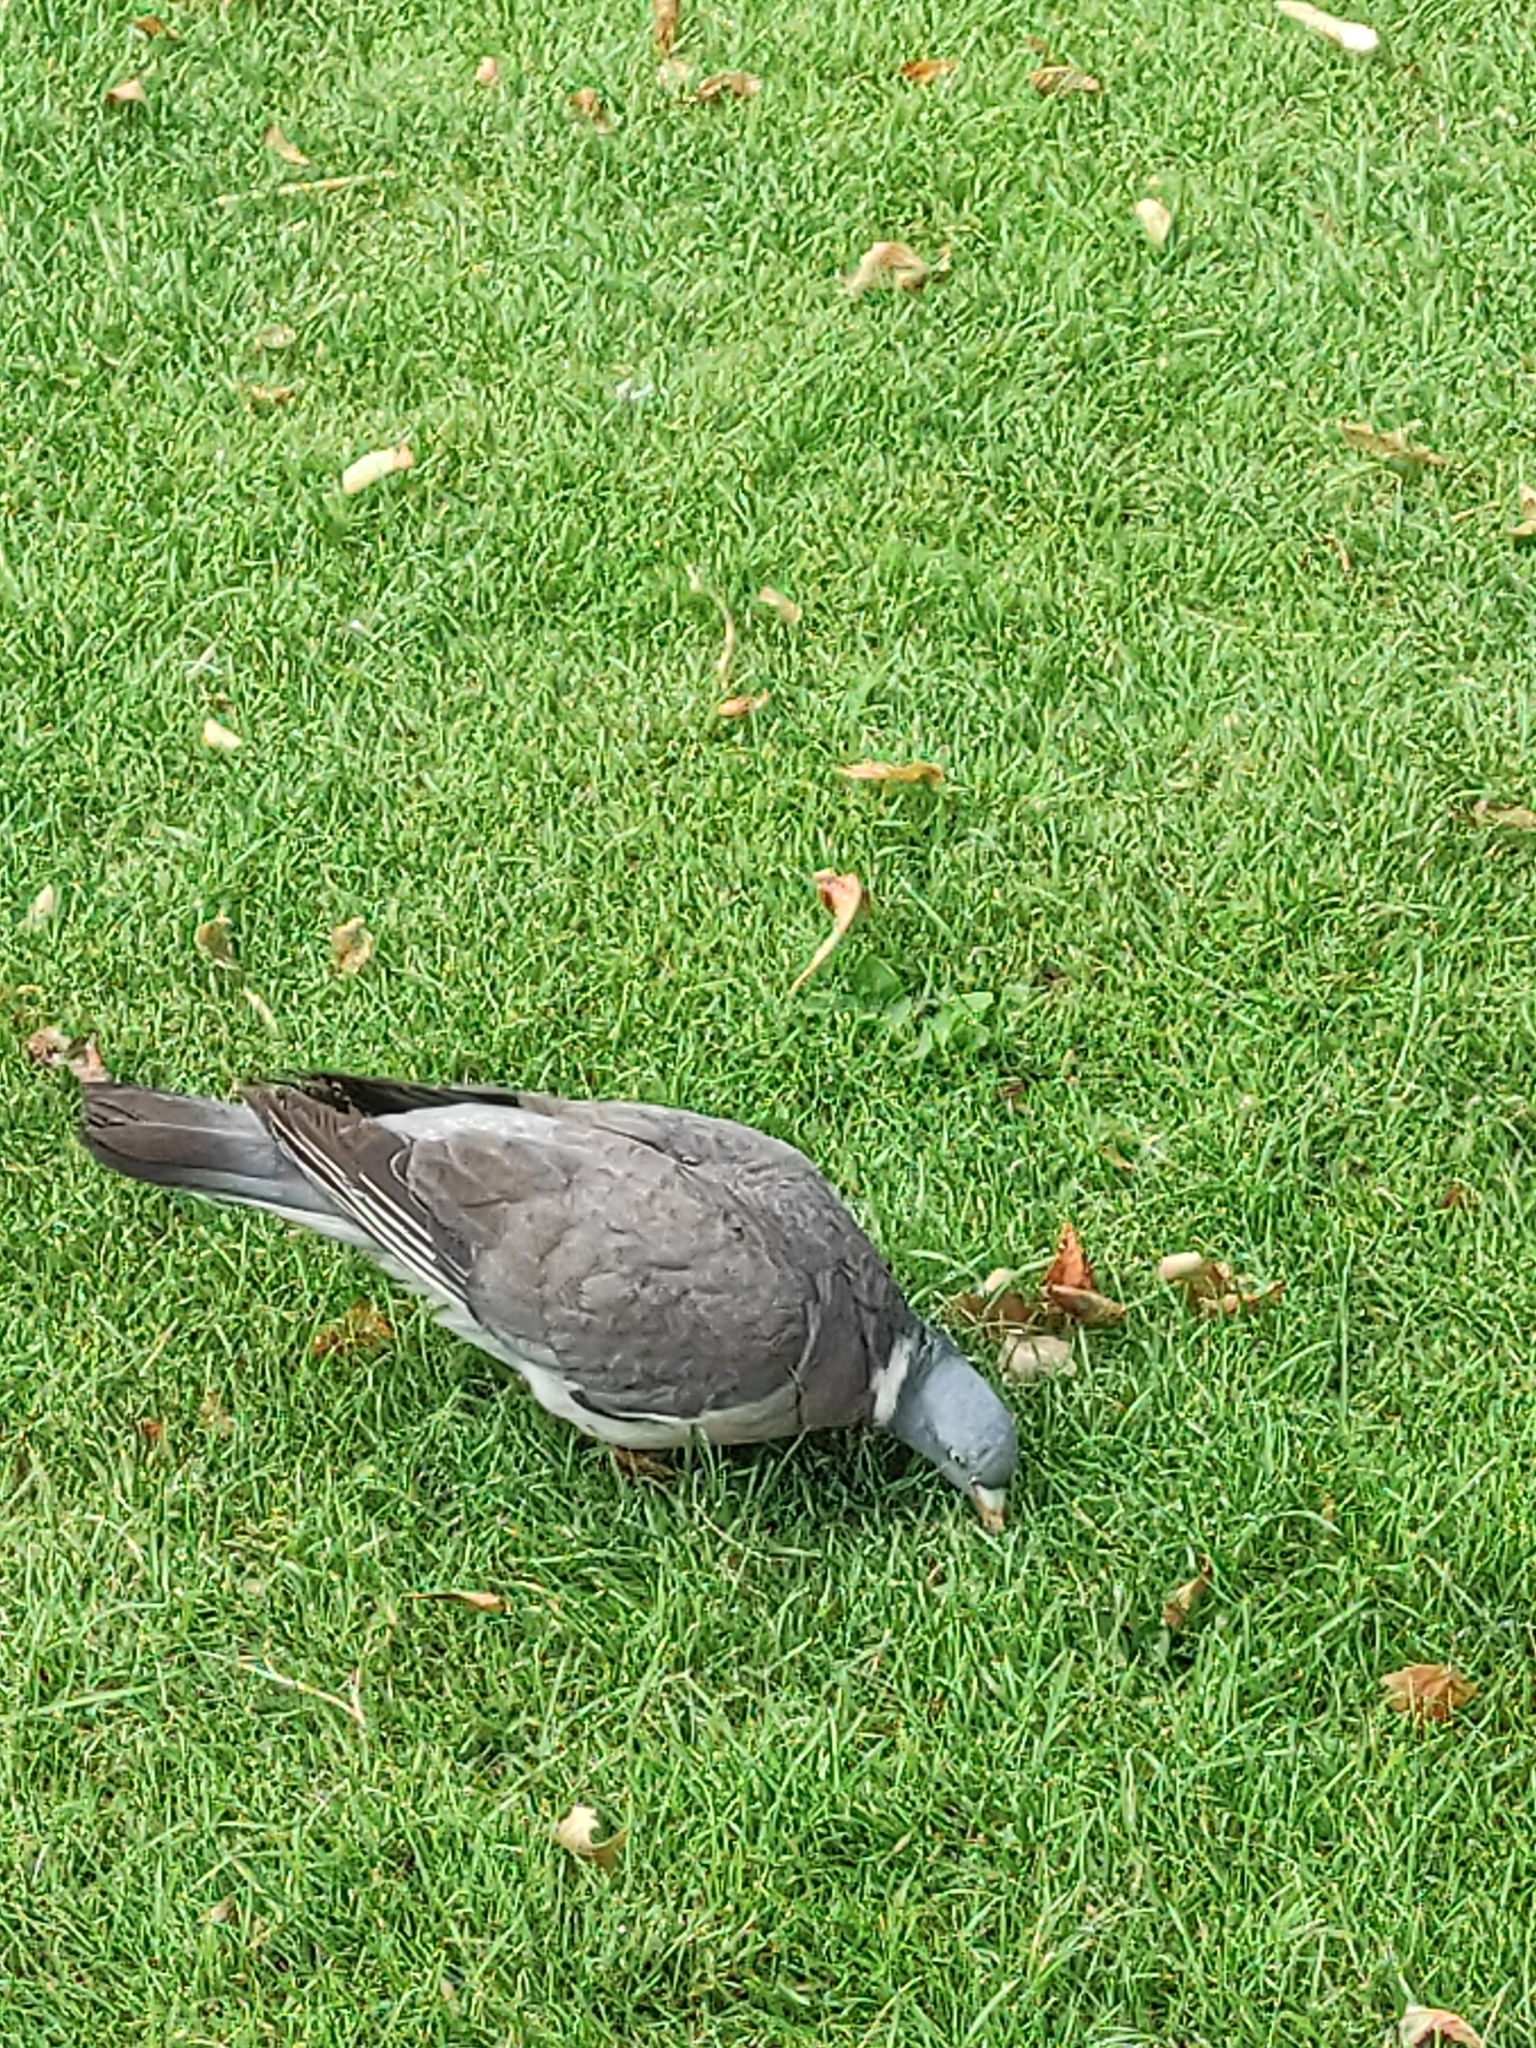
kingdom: Animalia
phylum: Chordata
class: Aves
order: Columbiformes
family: Columbidae
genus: Columba
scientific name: Columba palumbus
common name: Common wood pigeon
